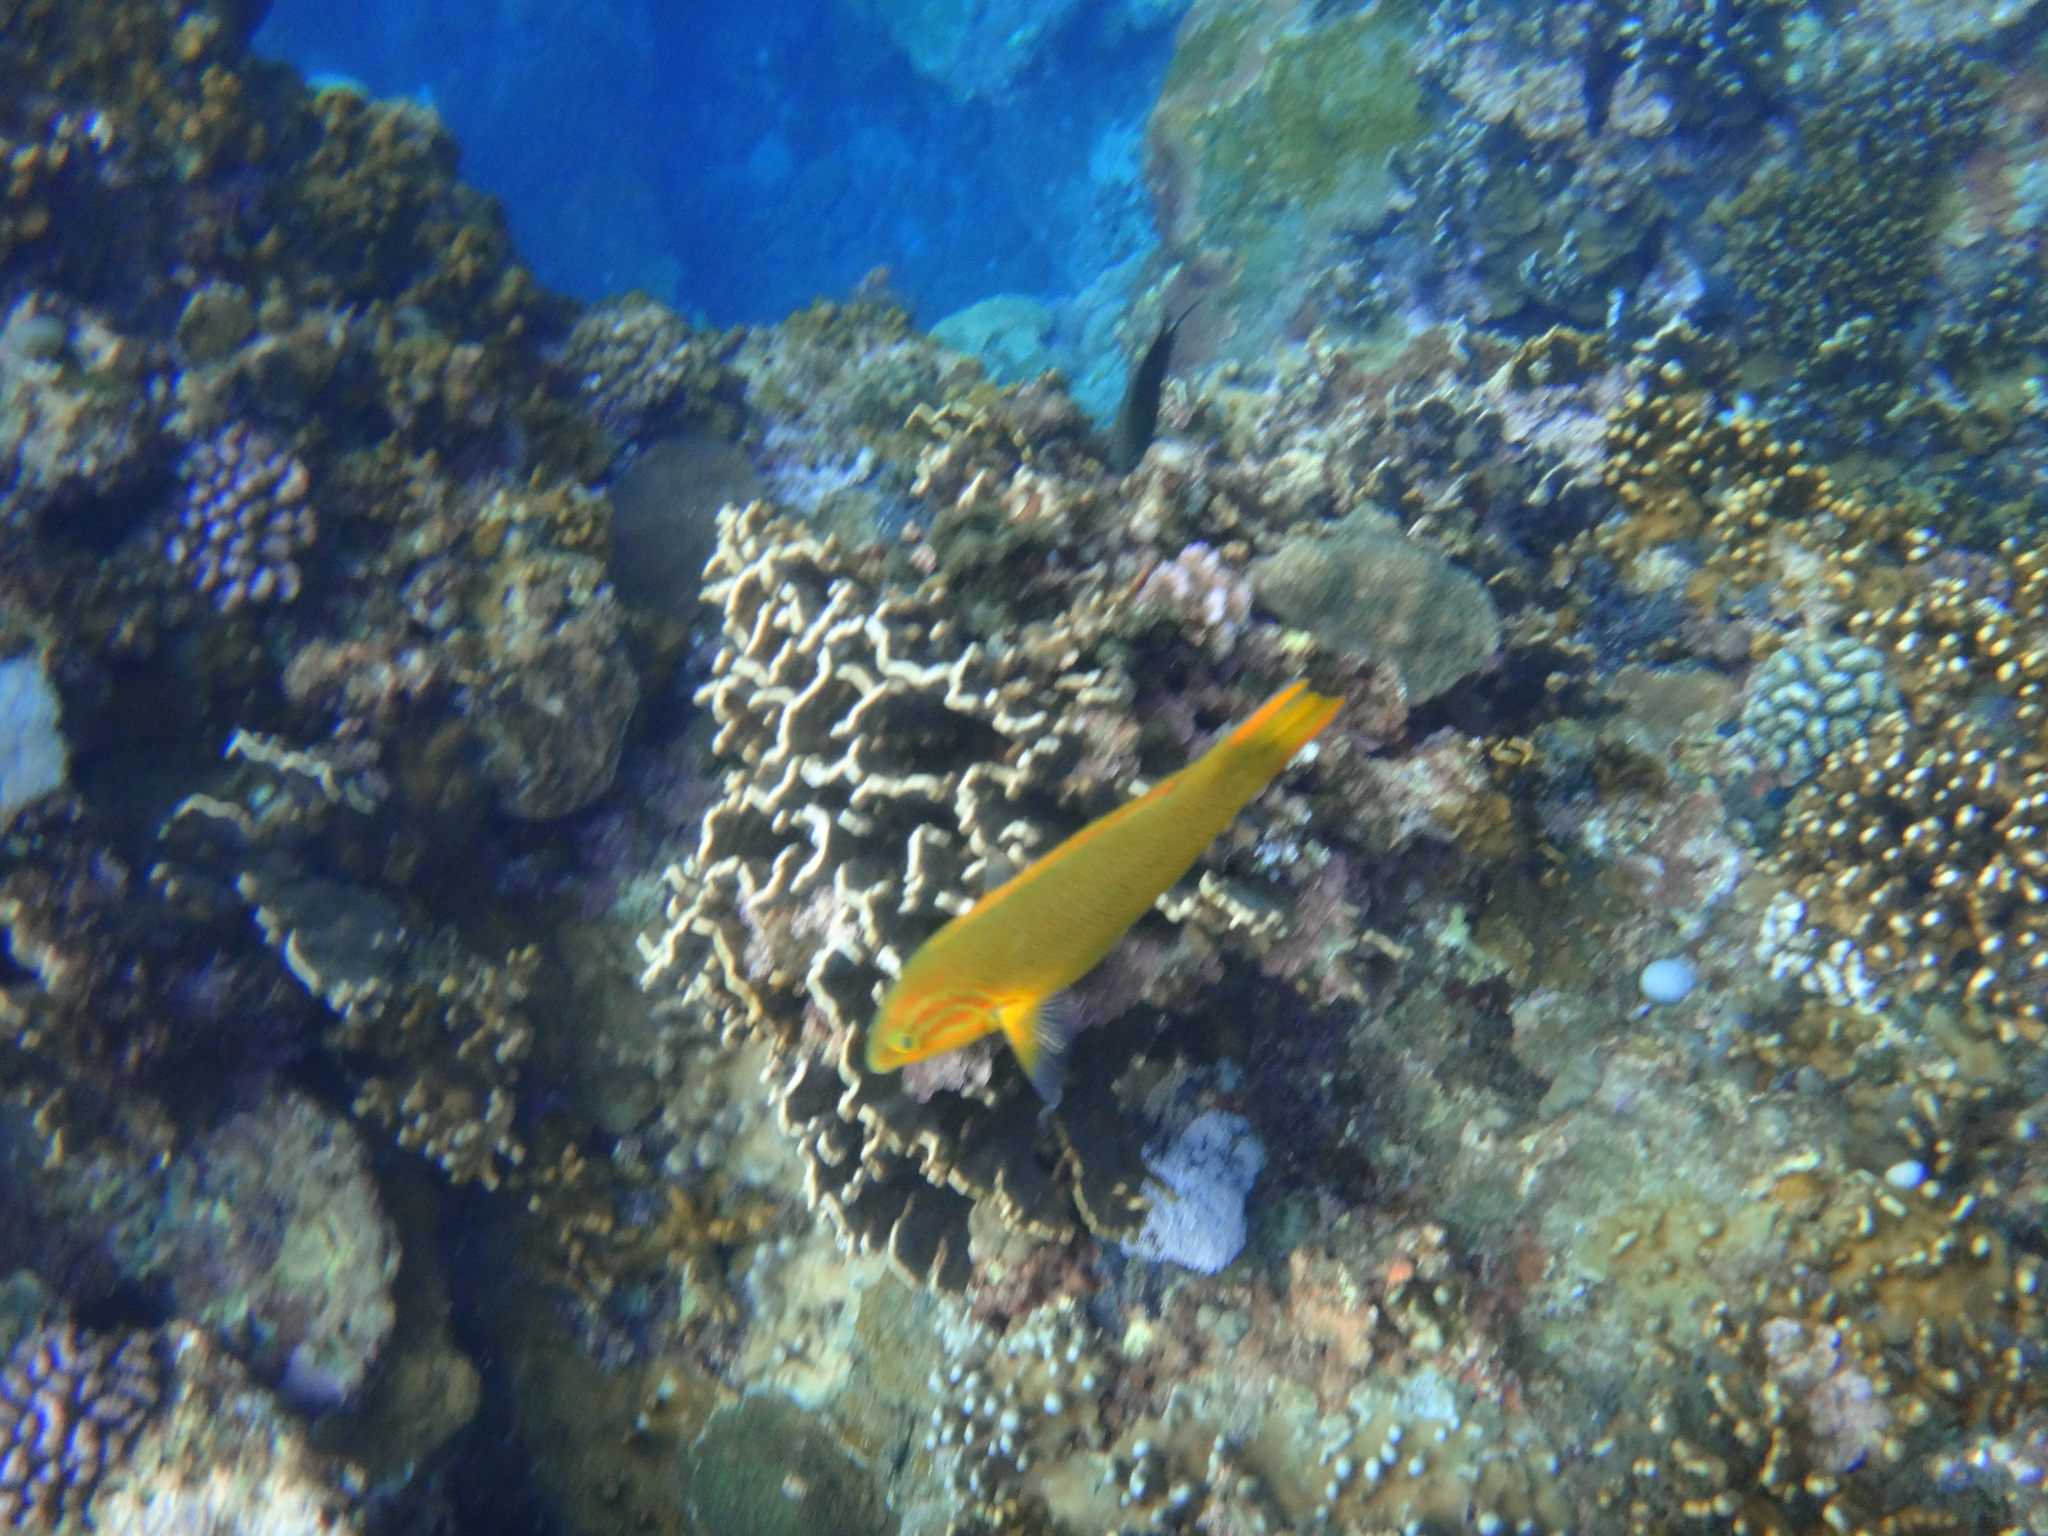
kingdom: Animalia
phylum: Chordata
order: Perciformes
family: Labridae
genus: Thalassoma
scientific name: Thalassoma lutescens
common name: Green moon wrasse
